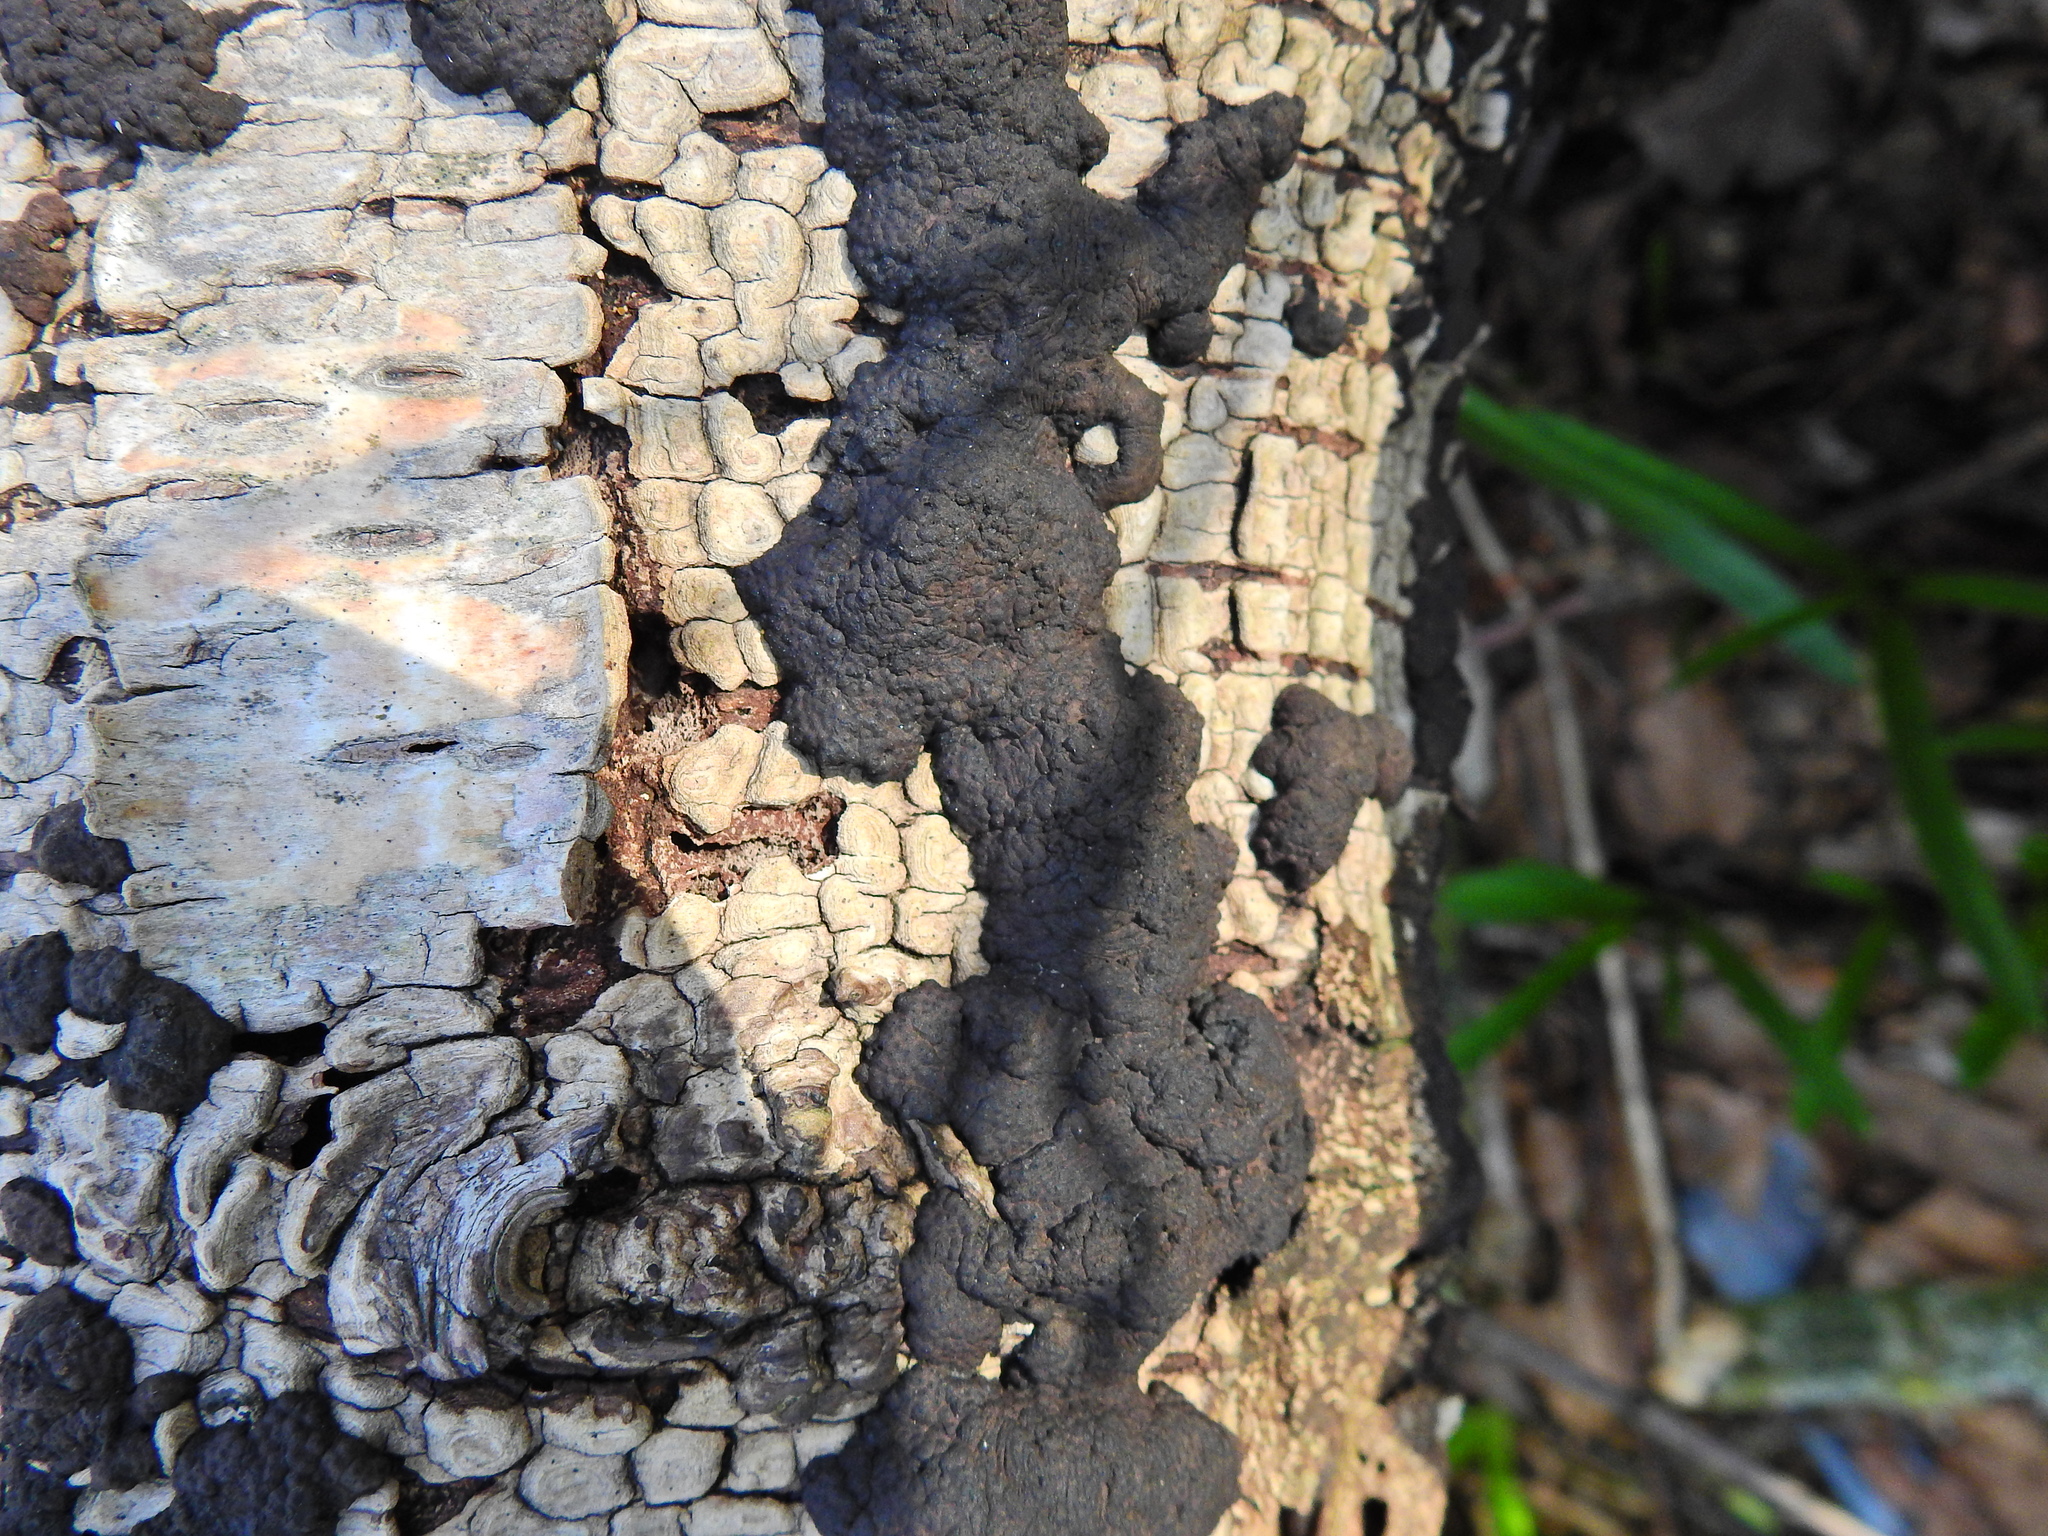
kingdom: Fungi
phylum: Ascomycota
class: Sordariomycetes
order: Xylariales
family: Hypoxylaceae
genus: Jackrogersella
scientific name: Jackrogersella multiformis
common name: Birch woodwart
